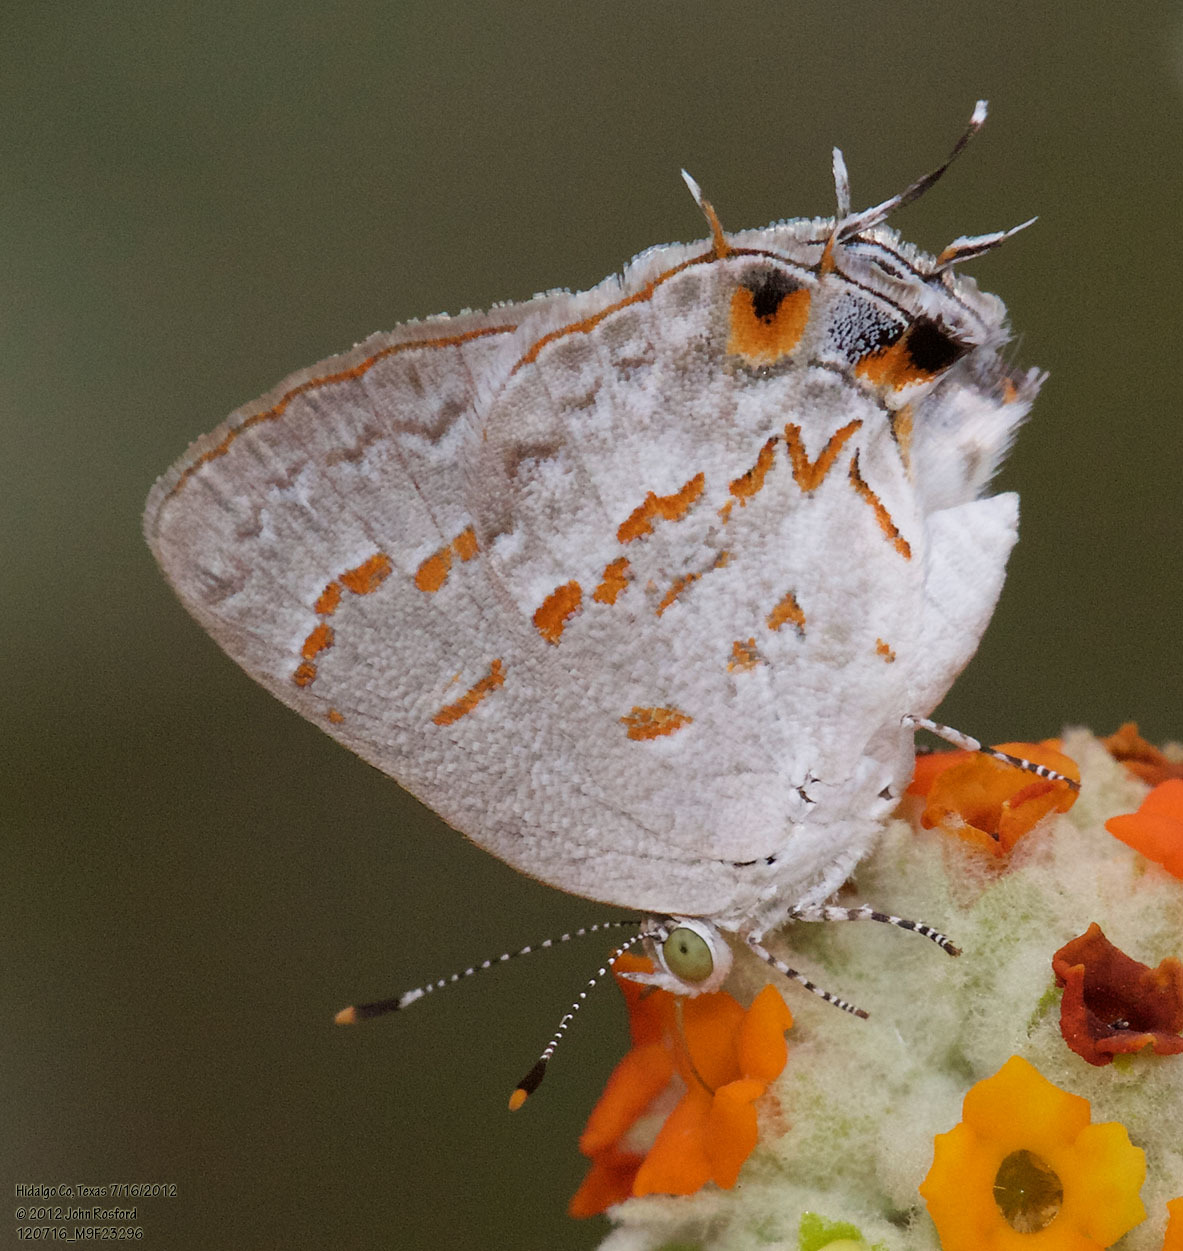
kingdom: Animalia
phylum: Arthropoda
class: Insecta
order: Lepidoptera
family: Lycaenidae
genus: Ministrymon
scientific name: Ministrymon clytie
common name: Clytie ministreak
